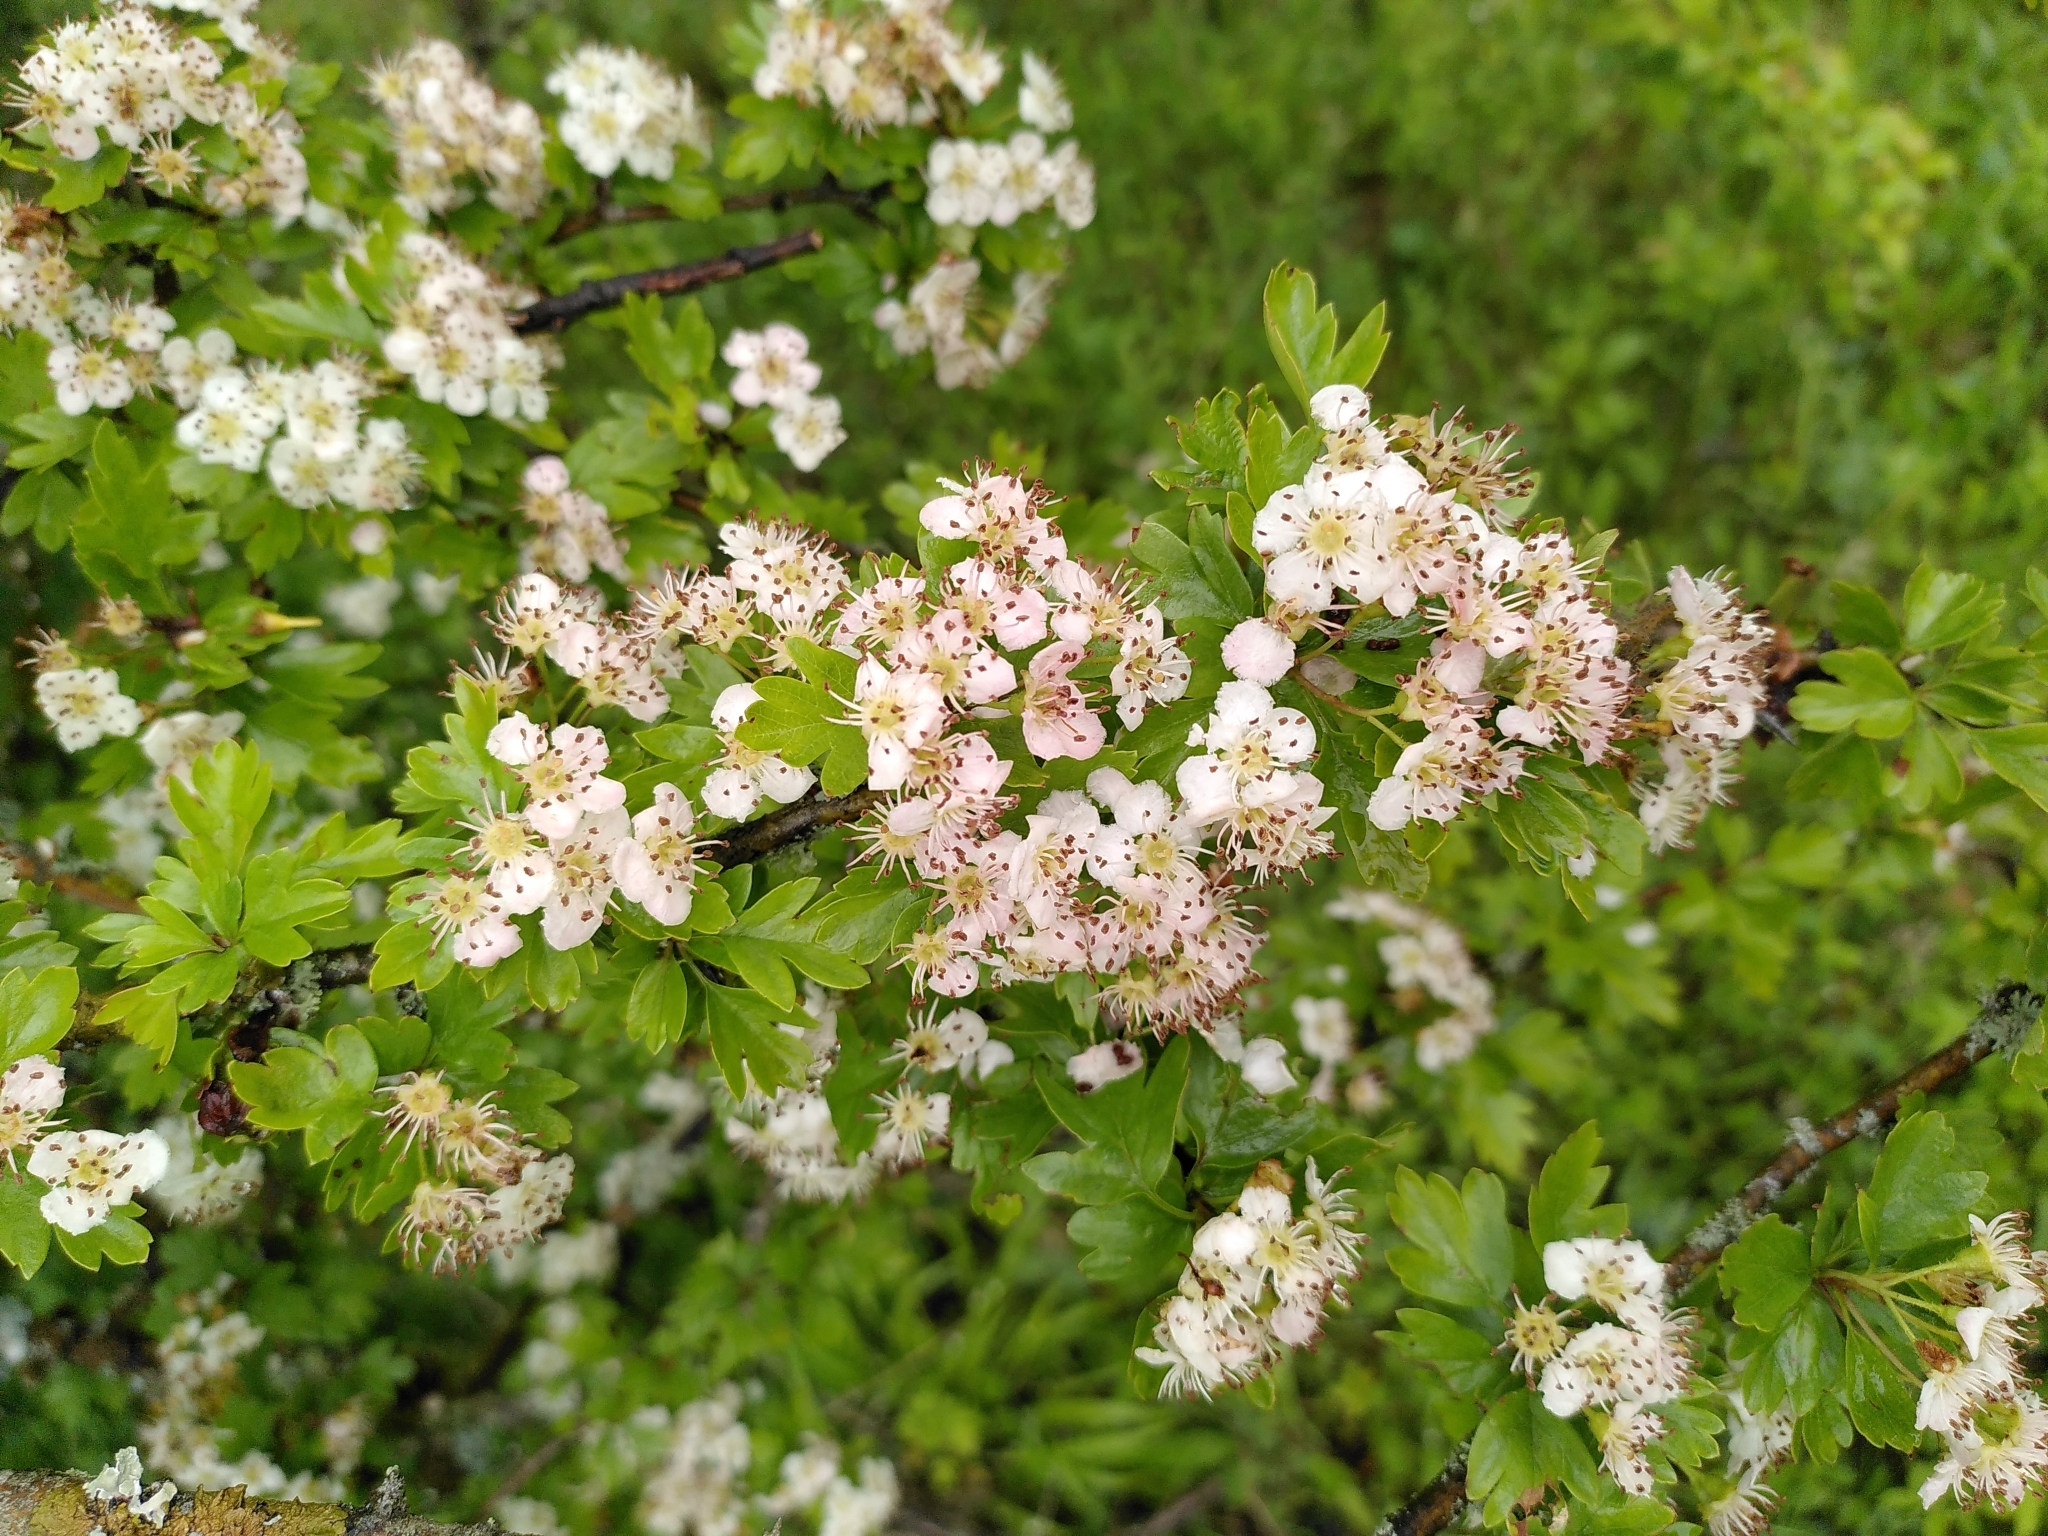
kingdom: Plantae
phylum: Tracheophyta
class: Magnoliopsida
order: Rosales
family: Rosaceae
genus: Crataegus
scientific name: Crataegus monogyna
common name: Hawthorn
